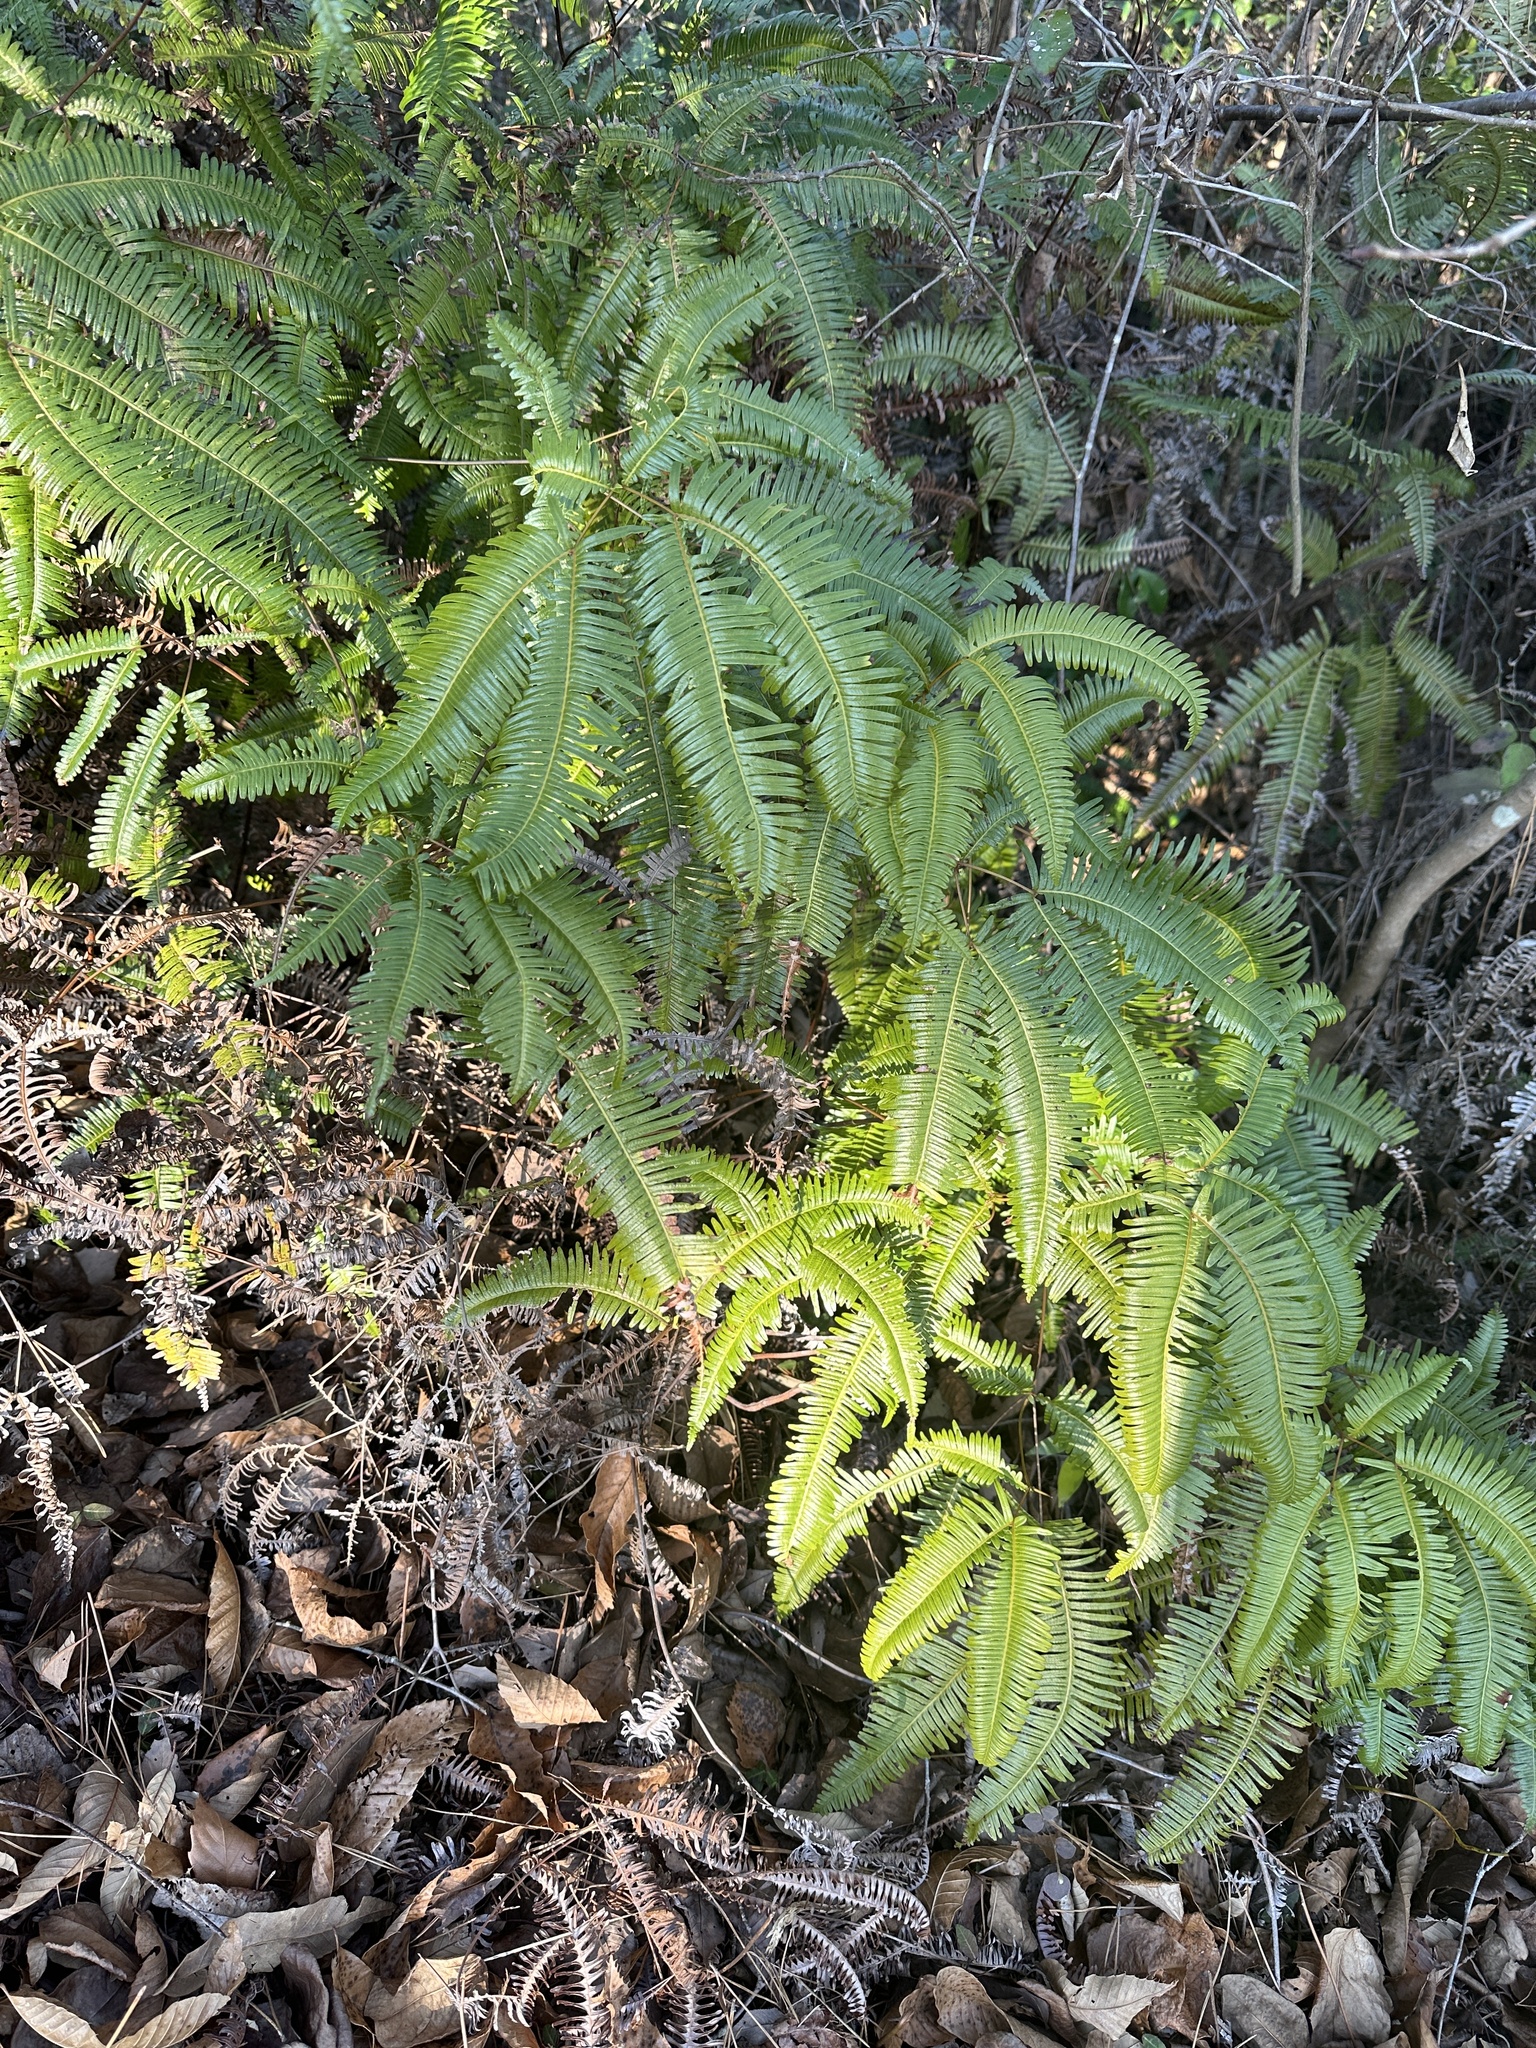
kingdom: Plantae
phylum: Tracheophyta
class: Polypodiopsida
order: Gleicheniales
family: Gleicheniaceae
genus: Dicranopteris
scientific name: Dicranopteris linearis
